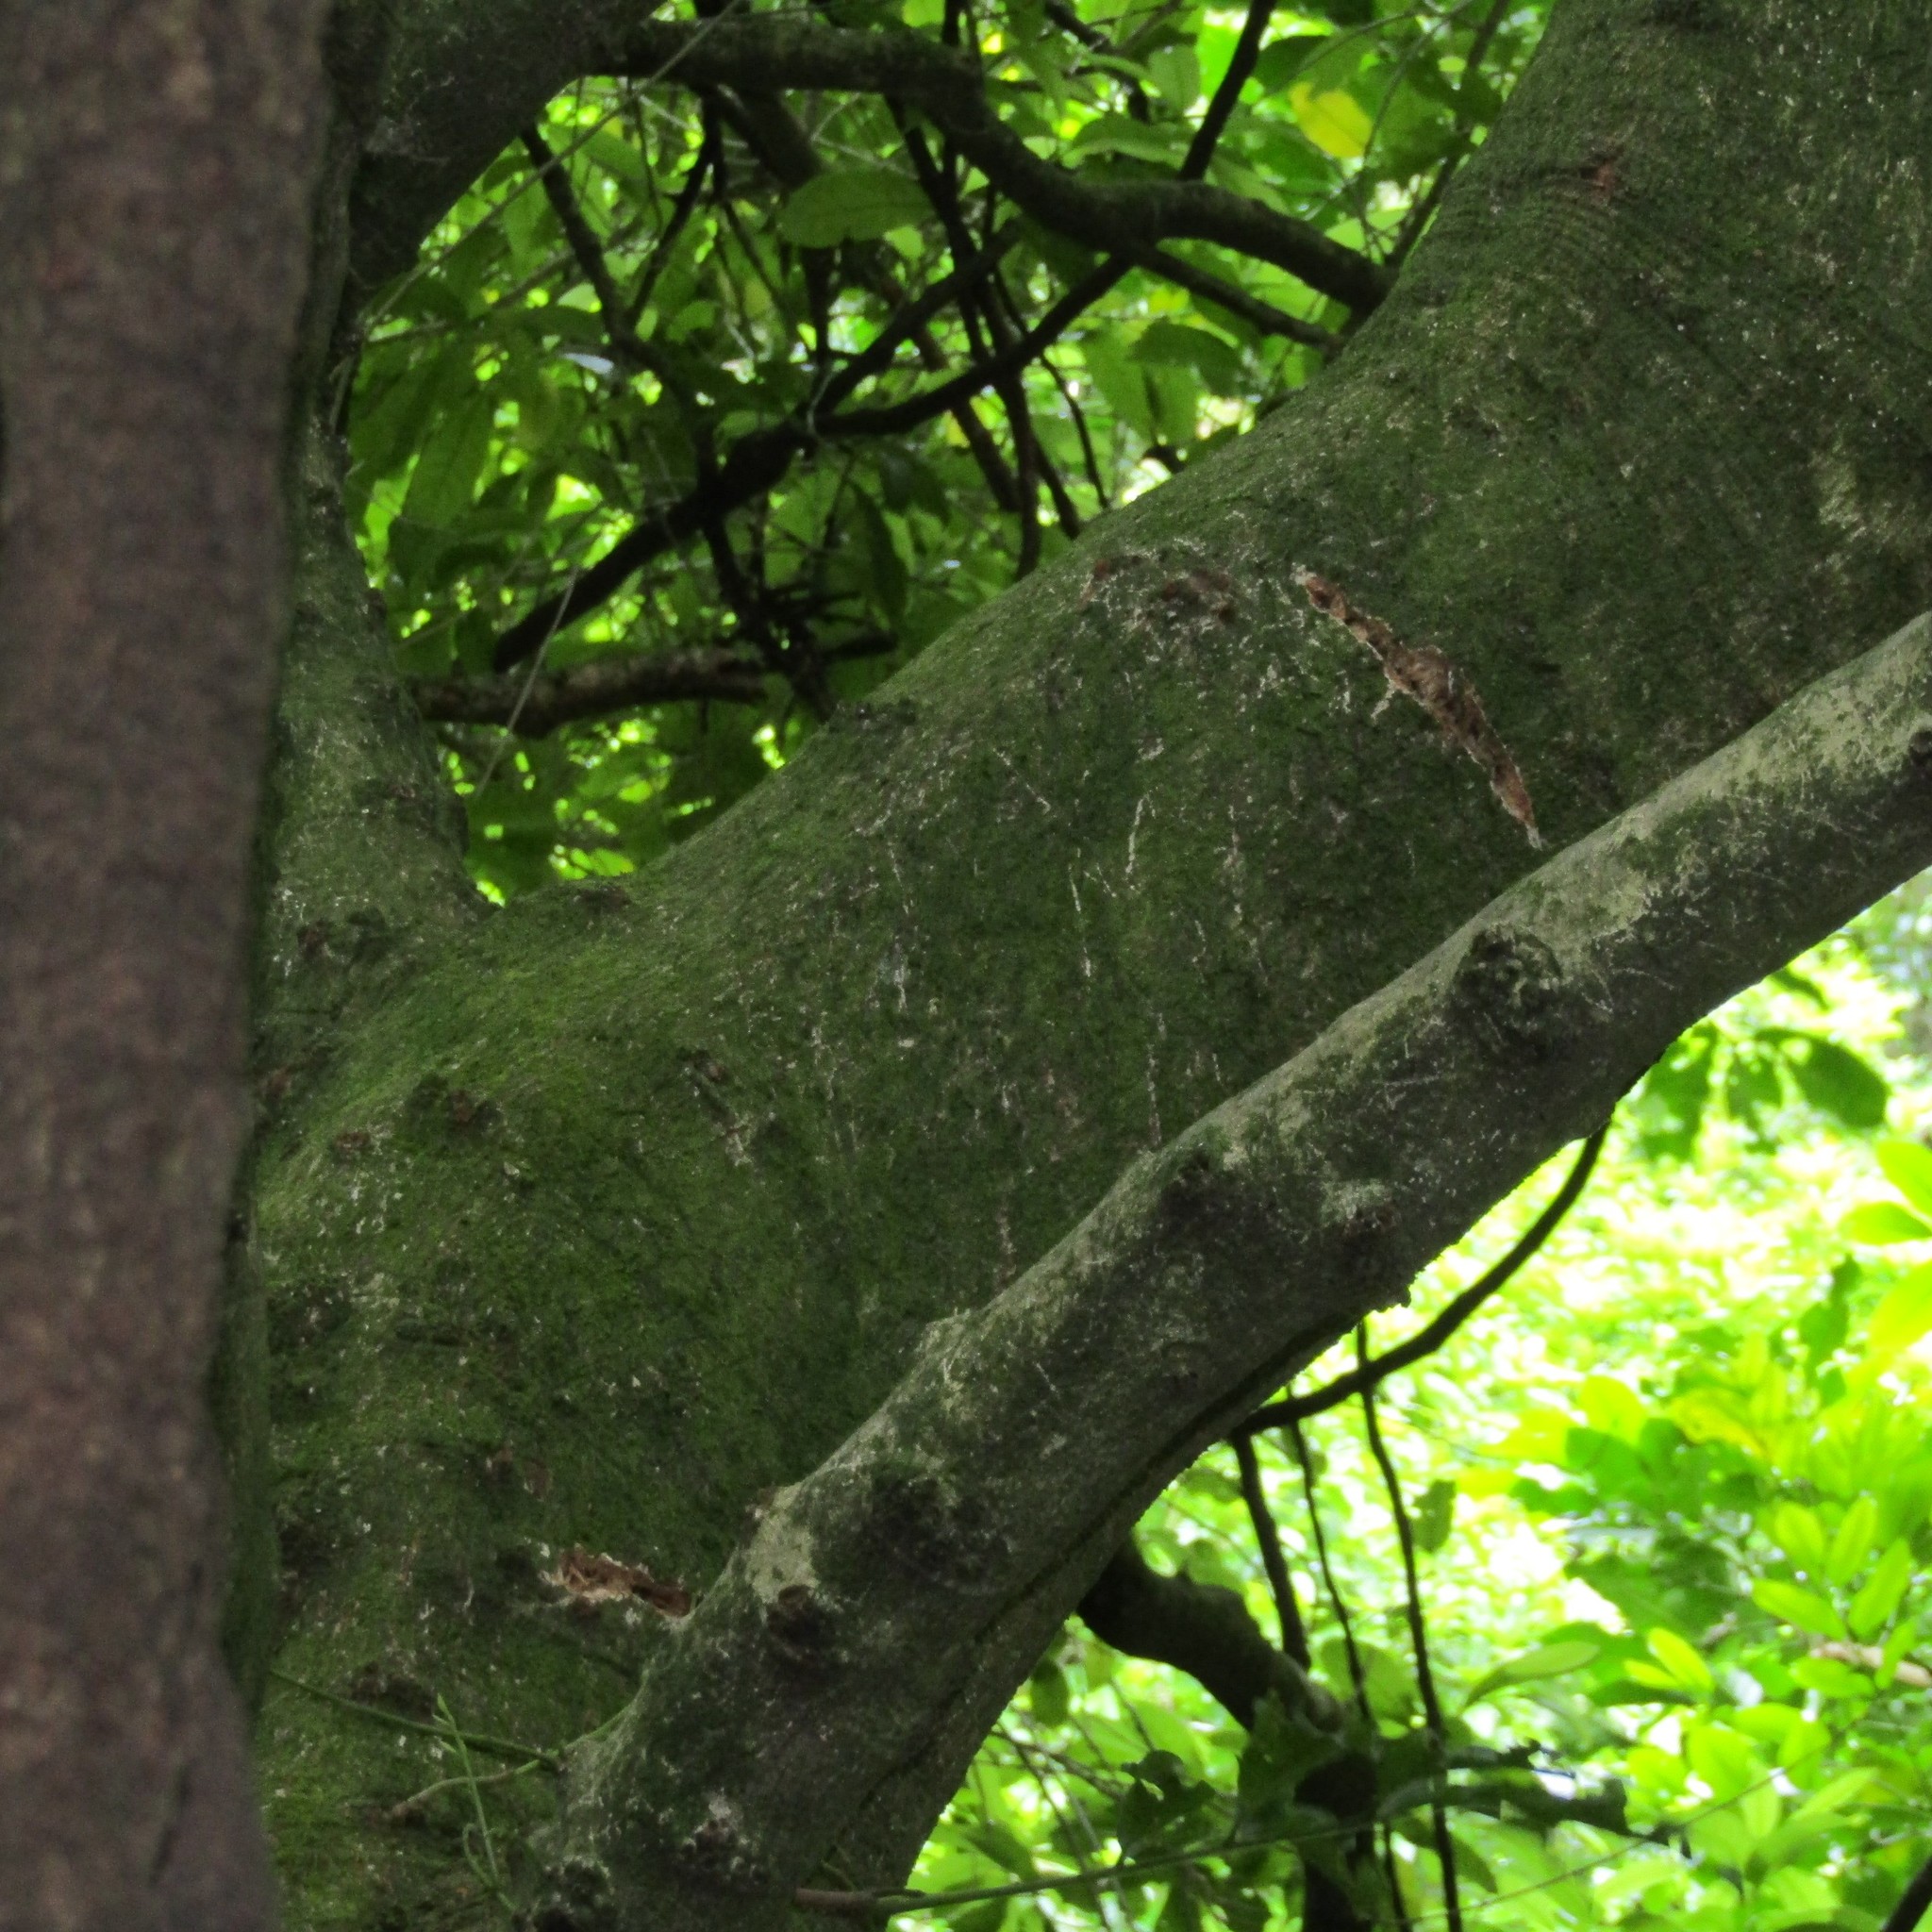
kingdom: Animalia
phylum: Chordata
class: Aves
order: Psittaciformes
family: Psittacidae
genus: Nestor
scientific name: Nestor meridionalis
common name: New zealand kaka
